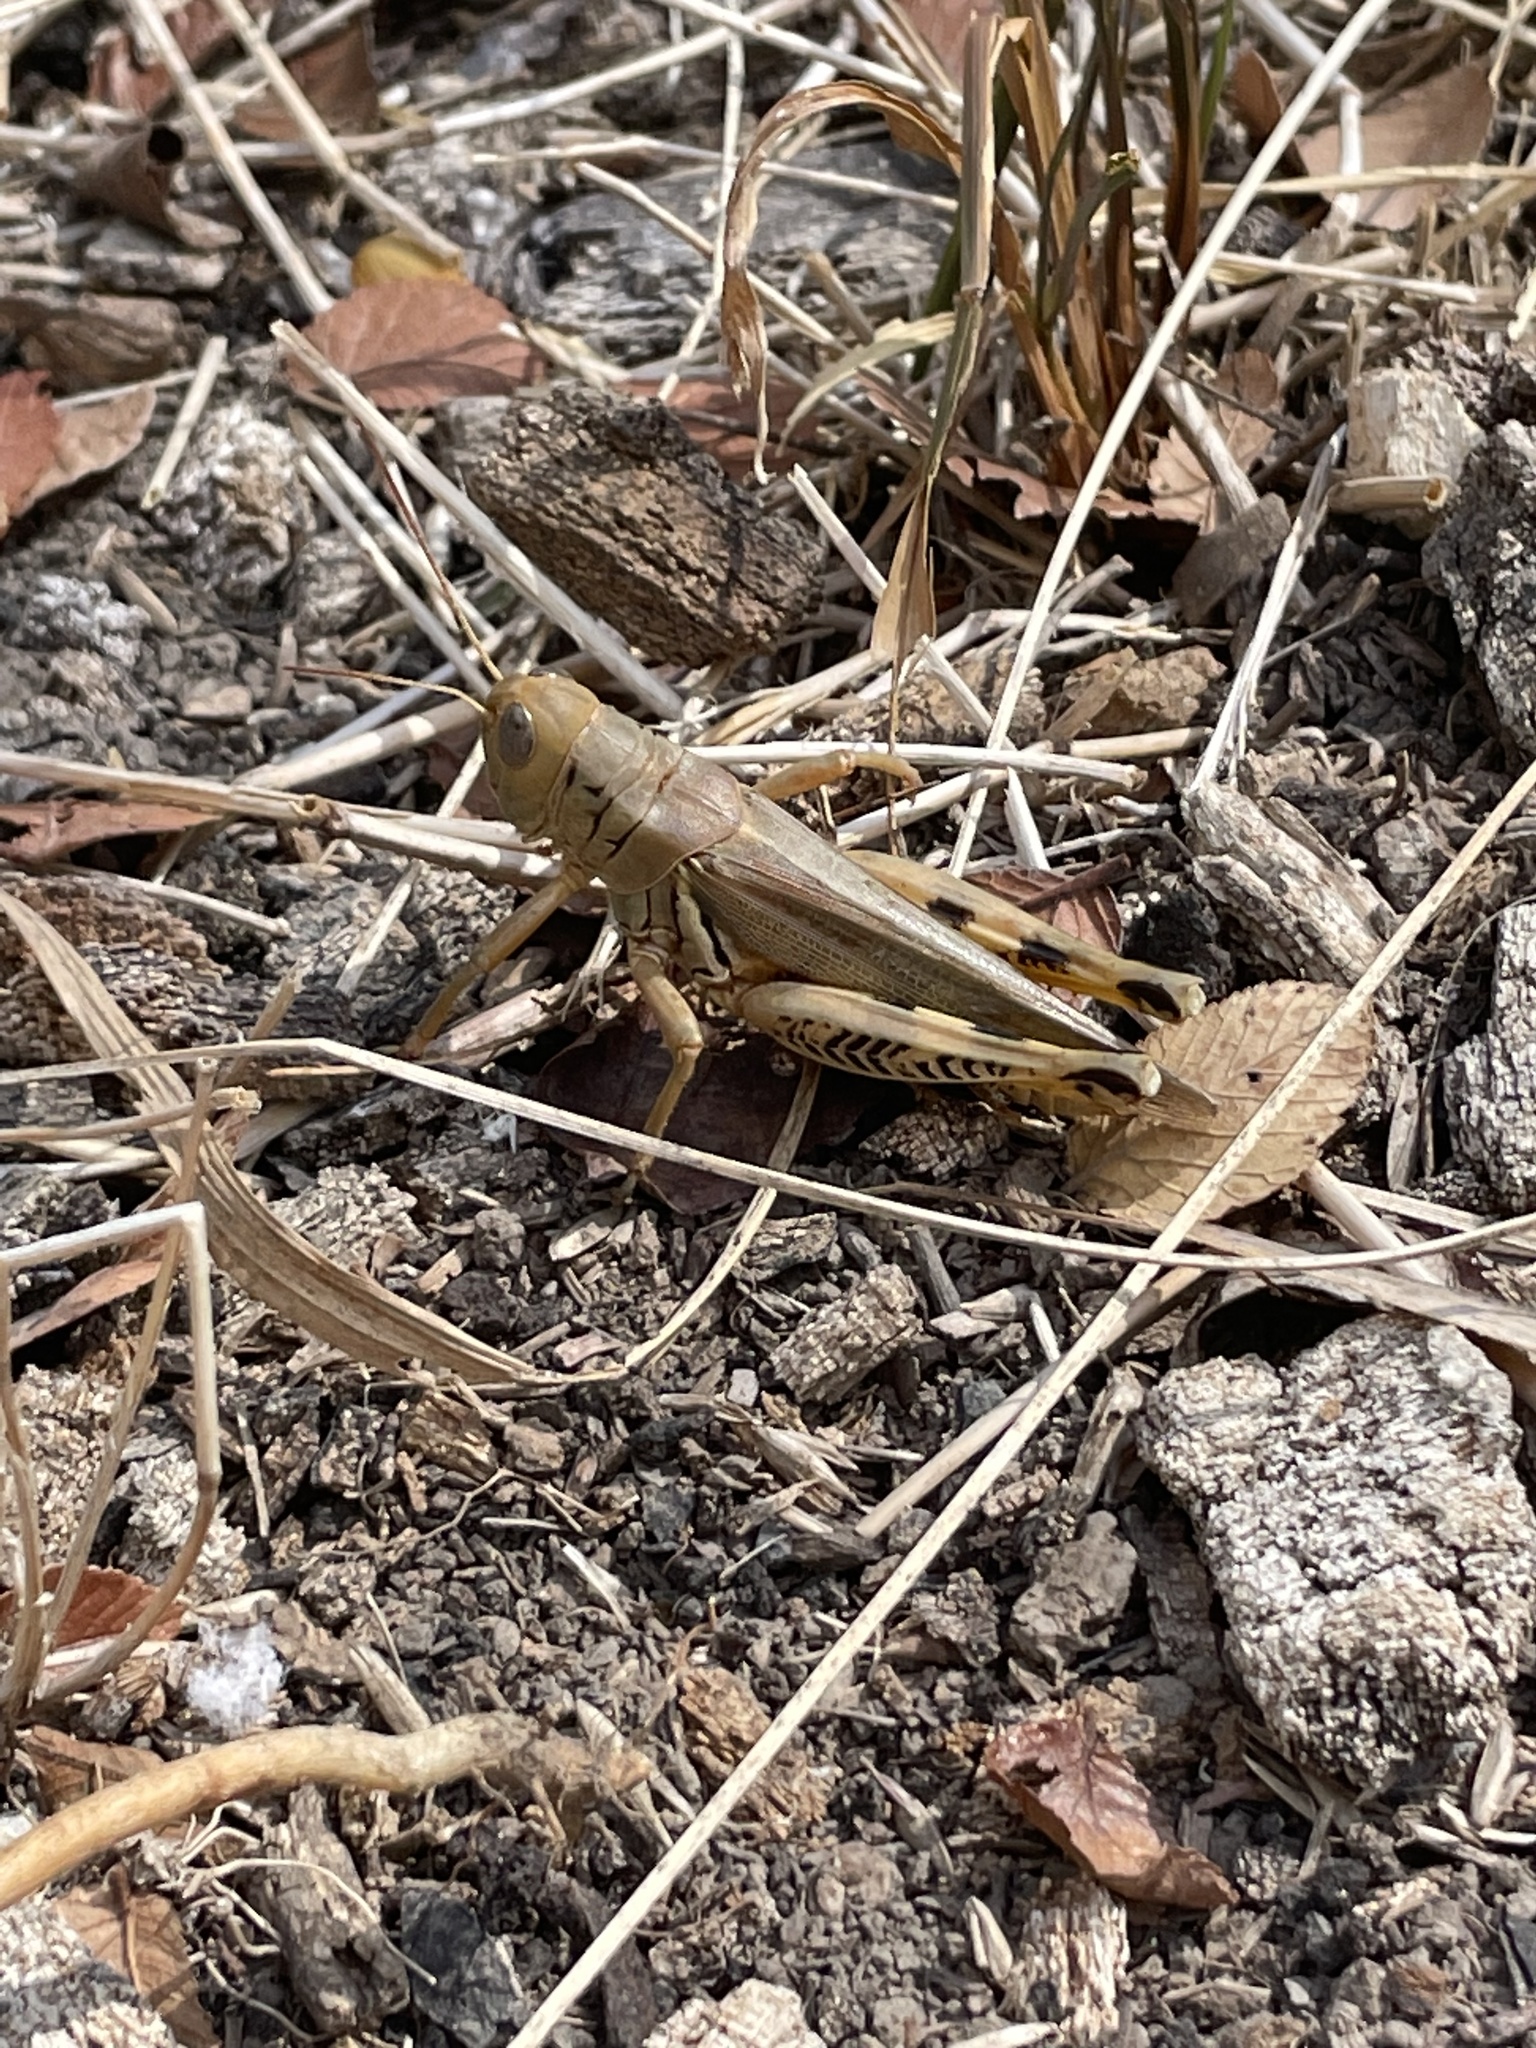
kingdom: Animalia
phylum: Arthropoda
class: Insecta
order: Orthoptera
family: Acrididae
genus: Melanoplus
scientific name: Melanoplus differentialis
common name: Differential grasshopper
